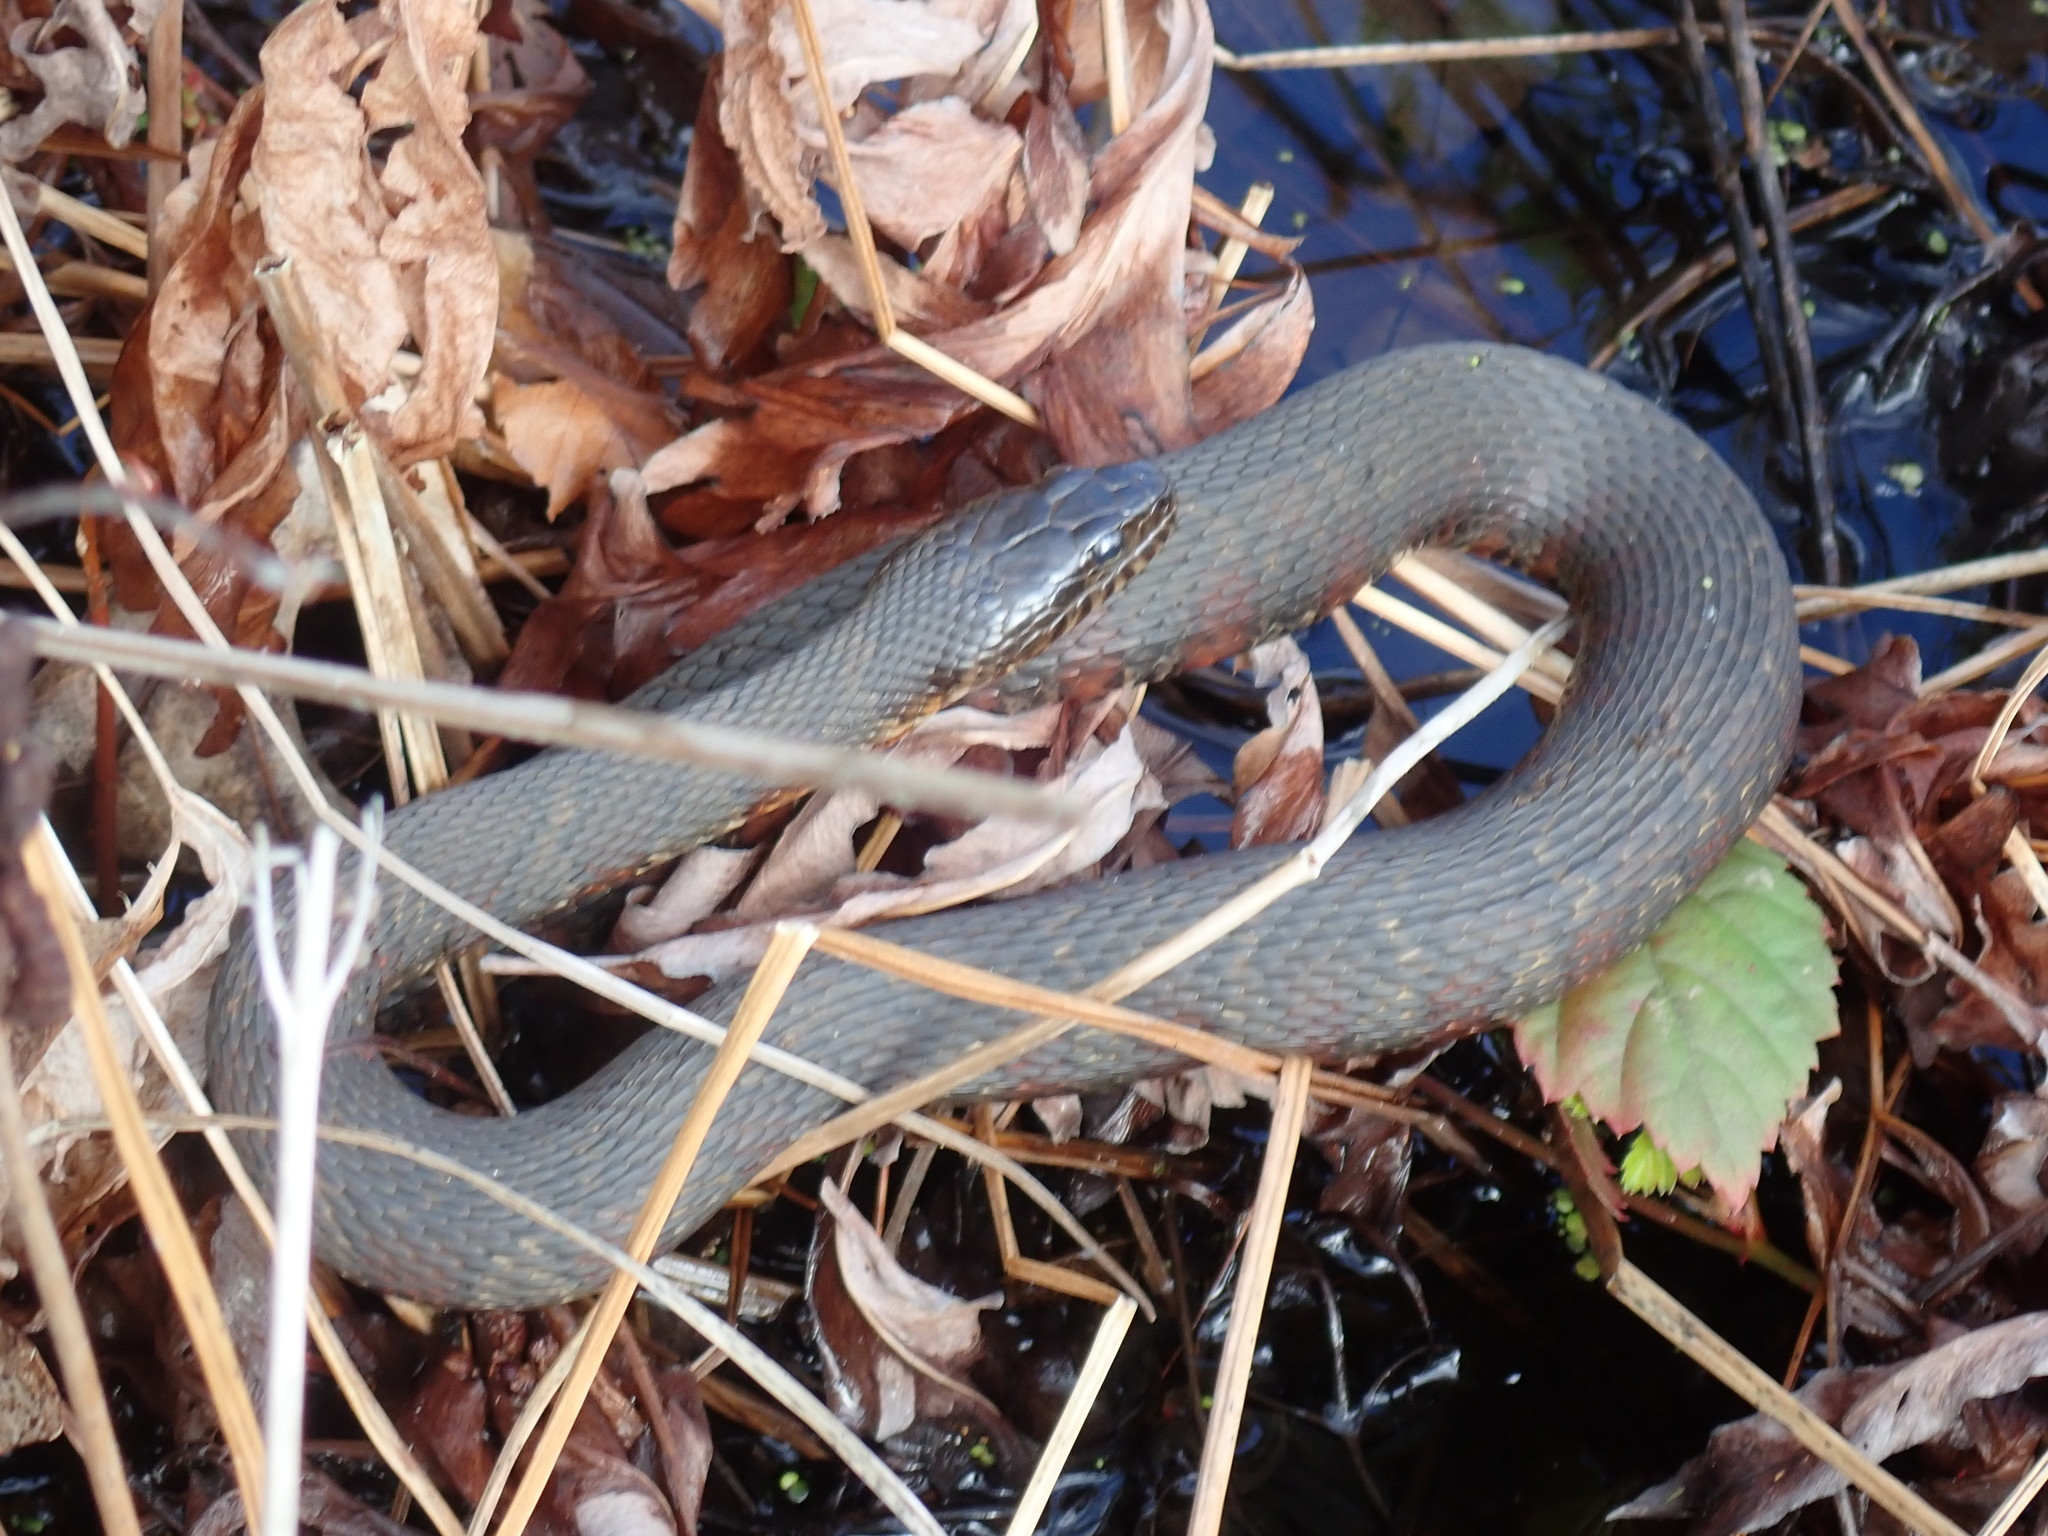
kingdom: Animalia
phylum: Chordata
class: Squamata
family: Colubridae
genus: Nerodia
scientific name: Nerodia sipedon
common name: Northern water snake
